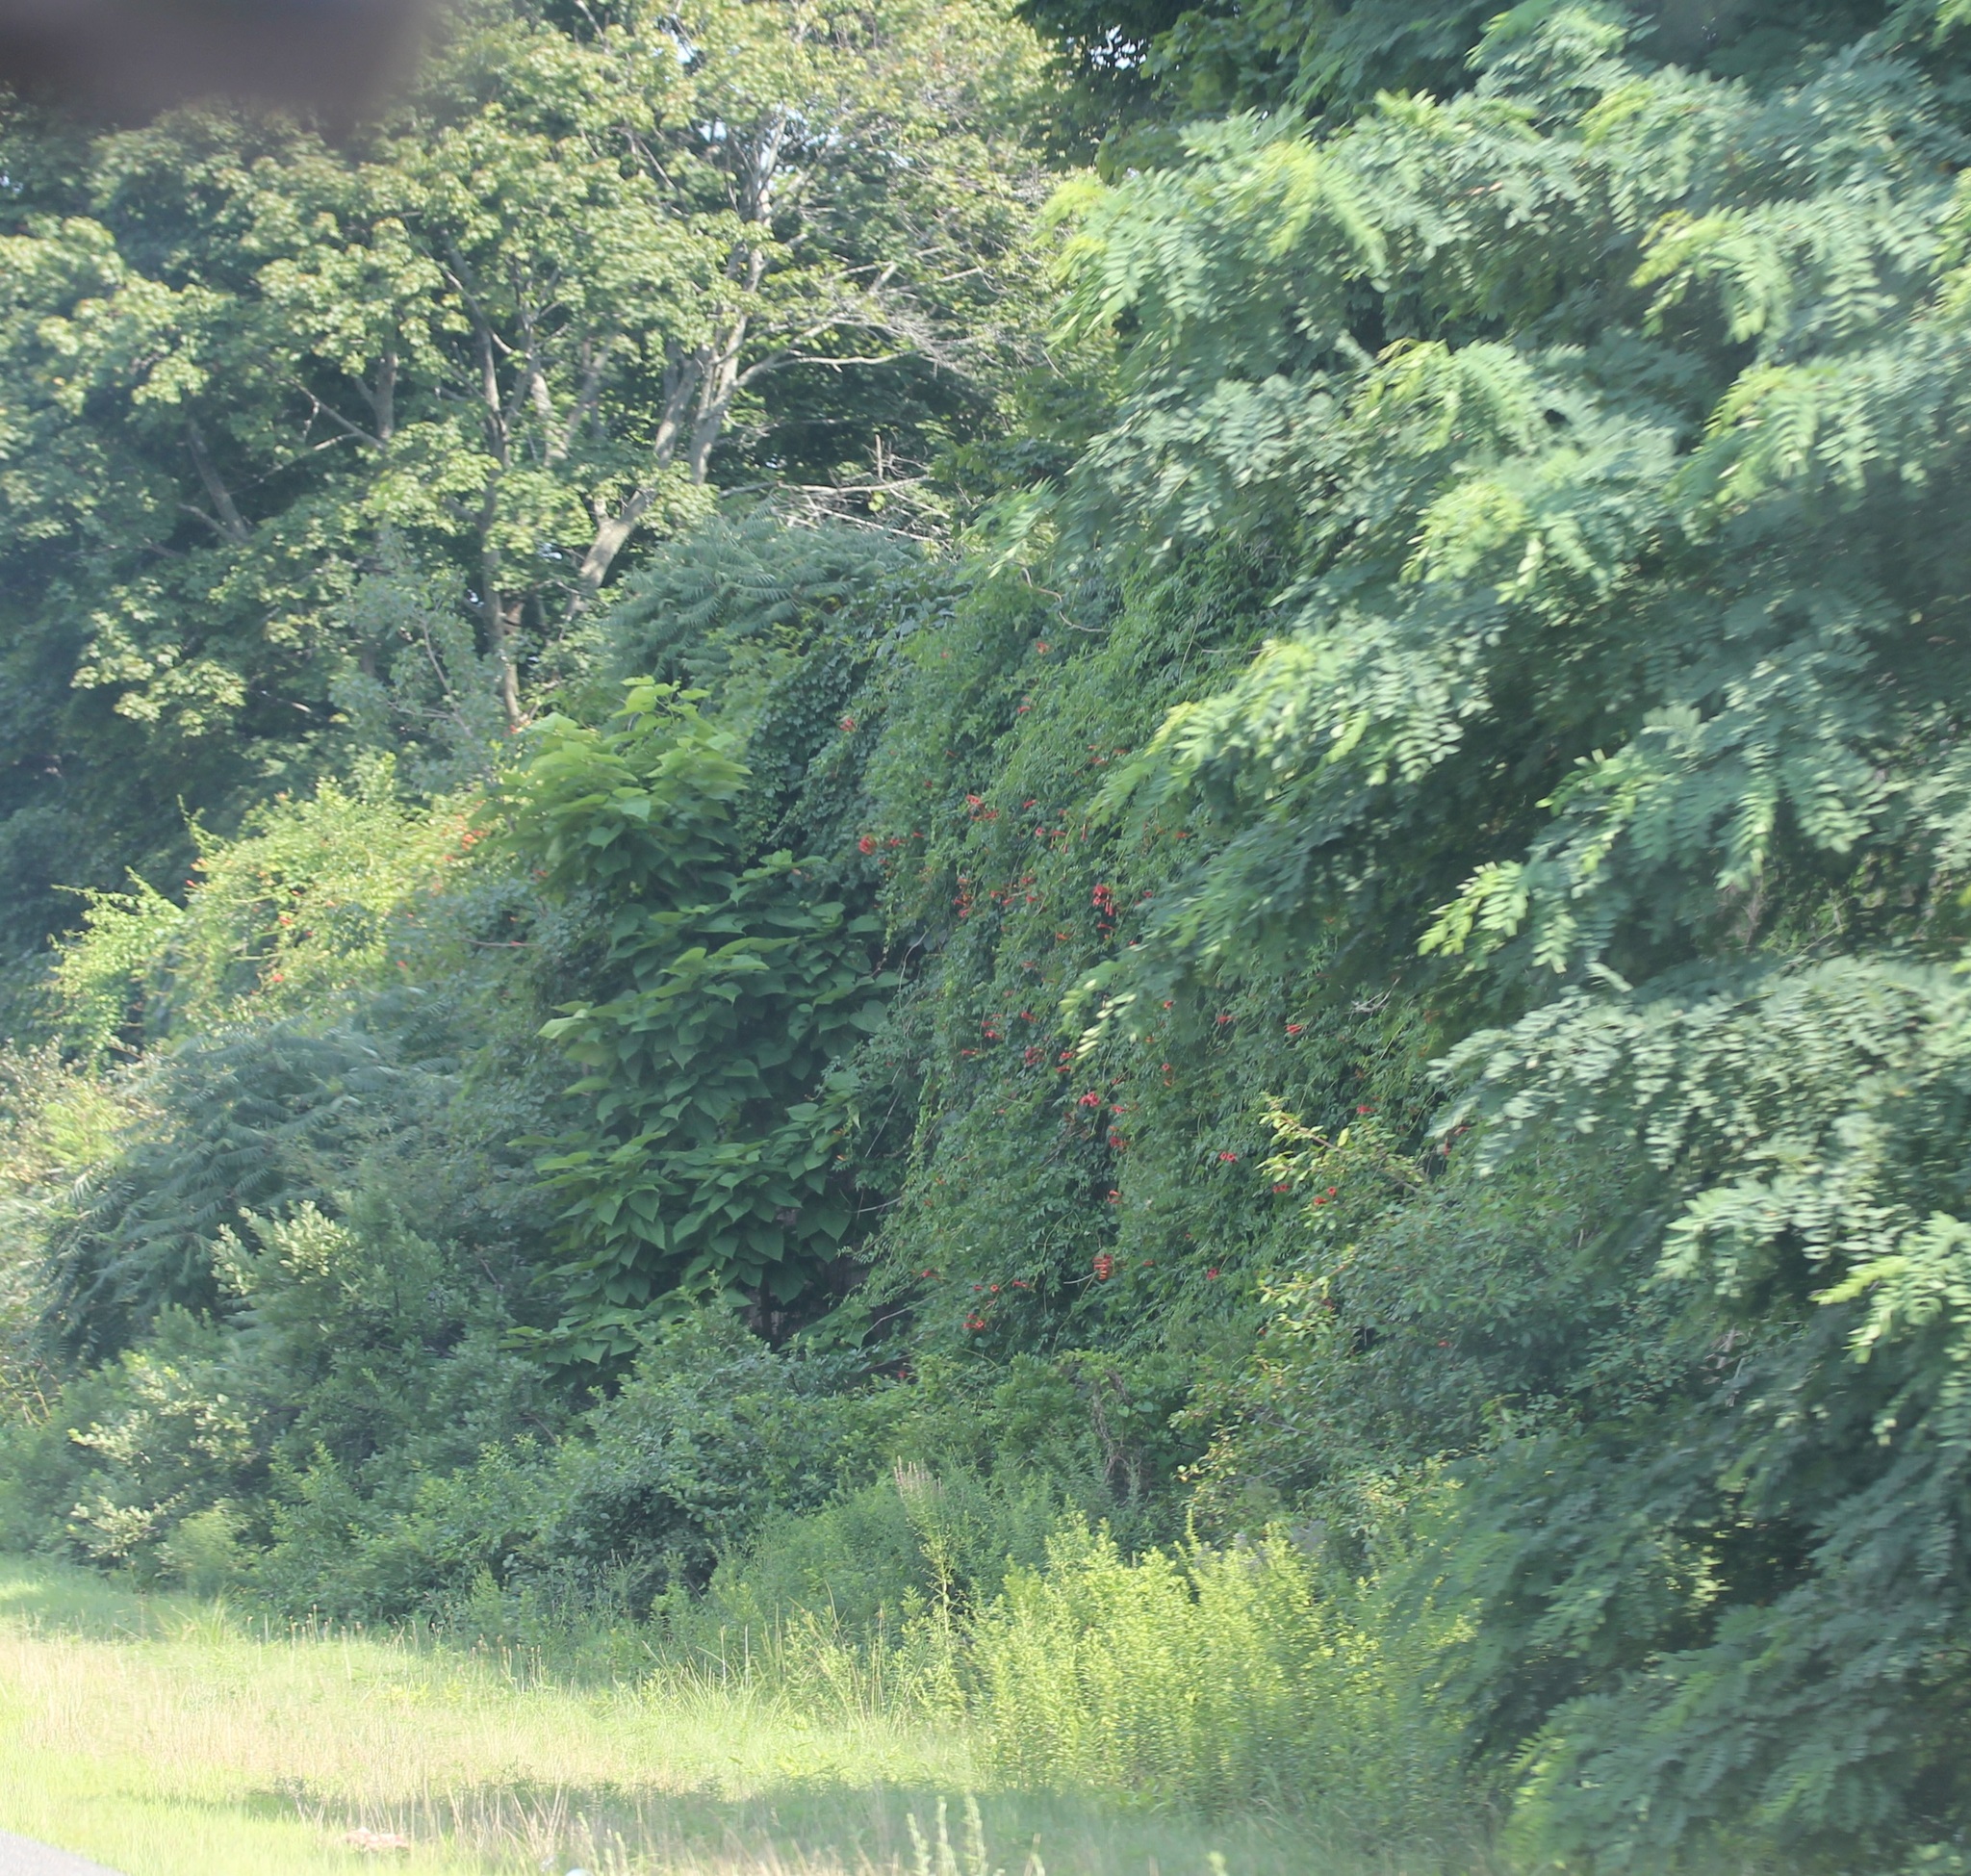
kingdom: Plantae
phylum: Tracheophyta
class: Magnoliopsida
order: Lamiales
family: Bignoniaceae
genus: Campsis
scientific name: Campsis radicans
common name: Trumpet-creeper
